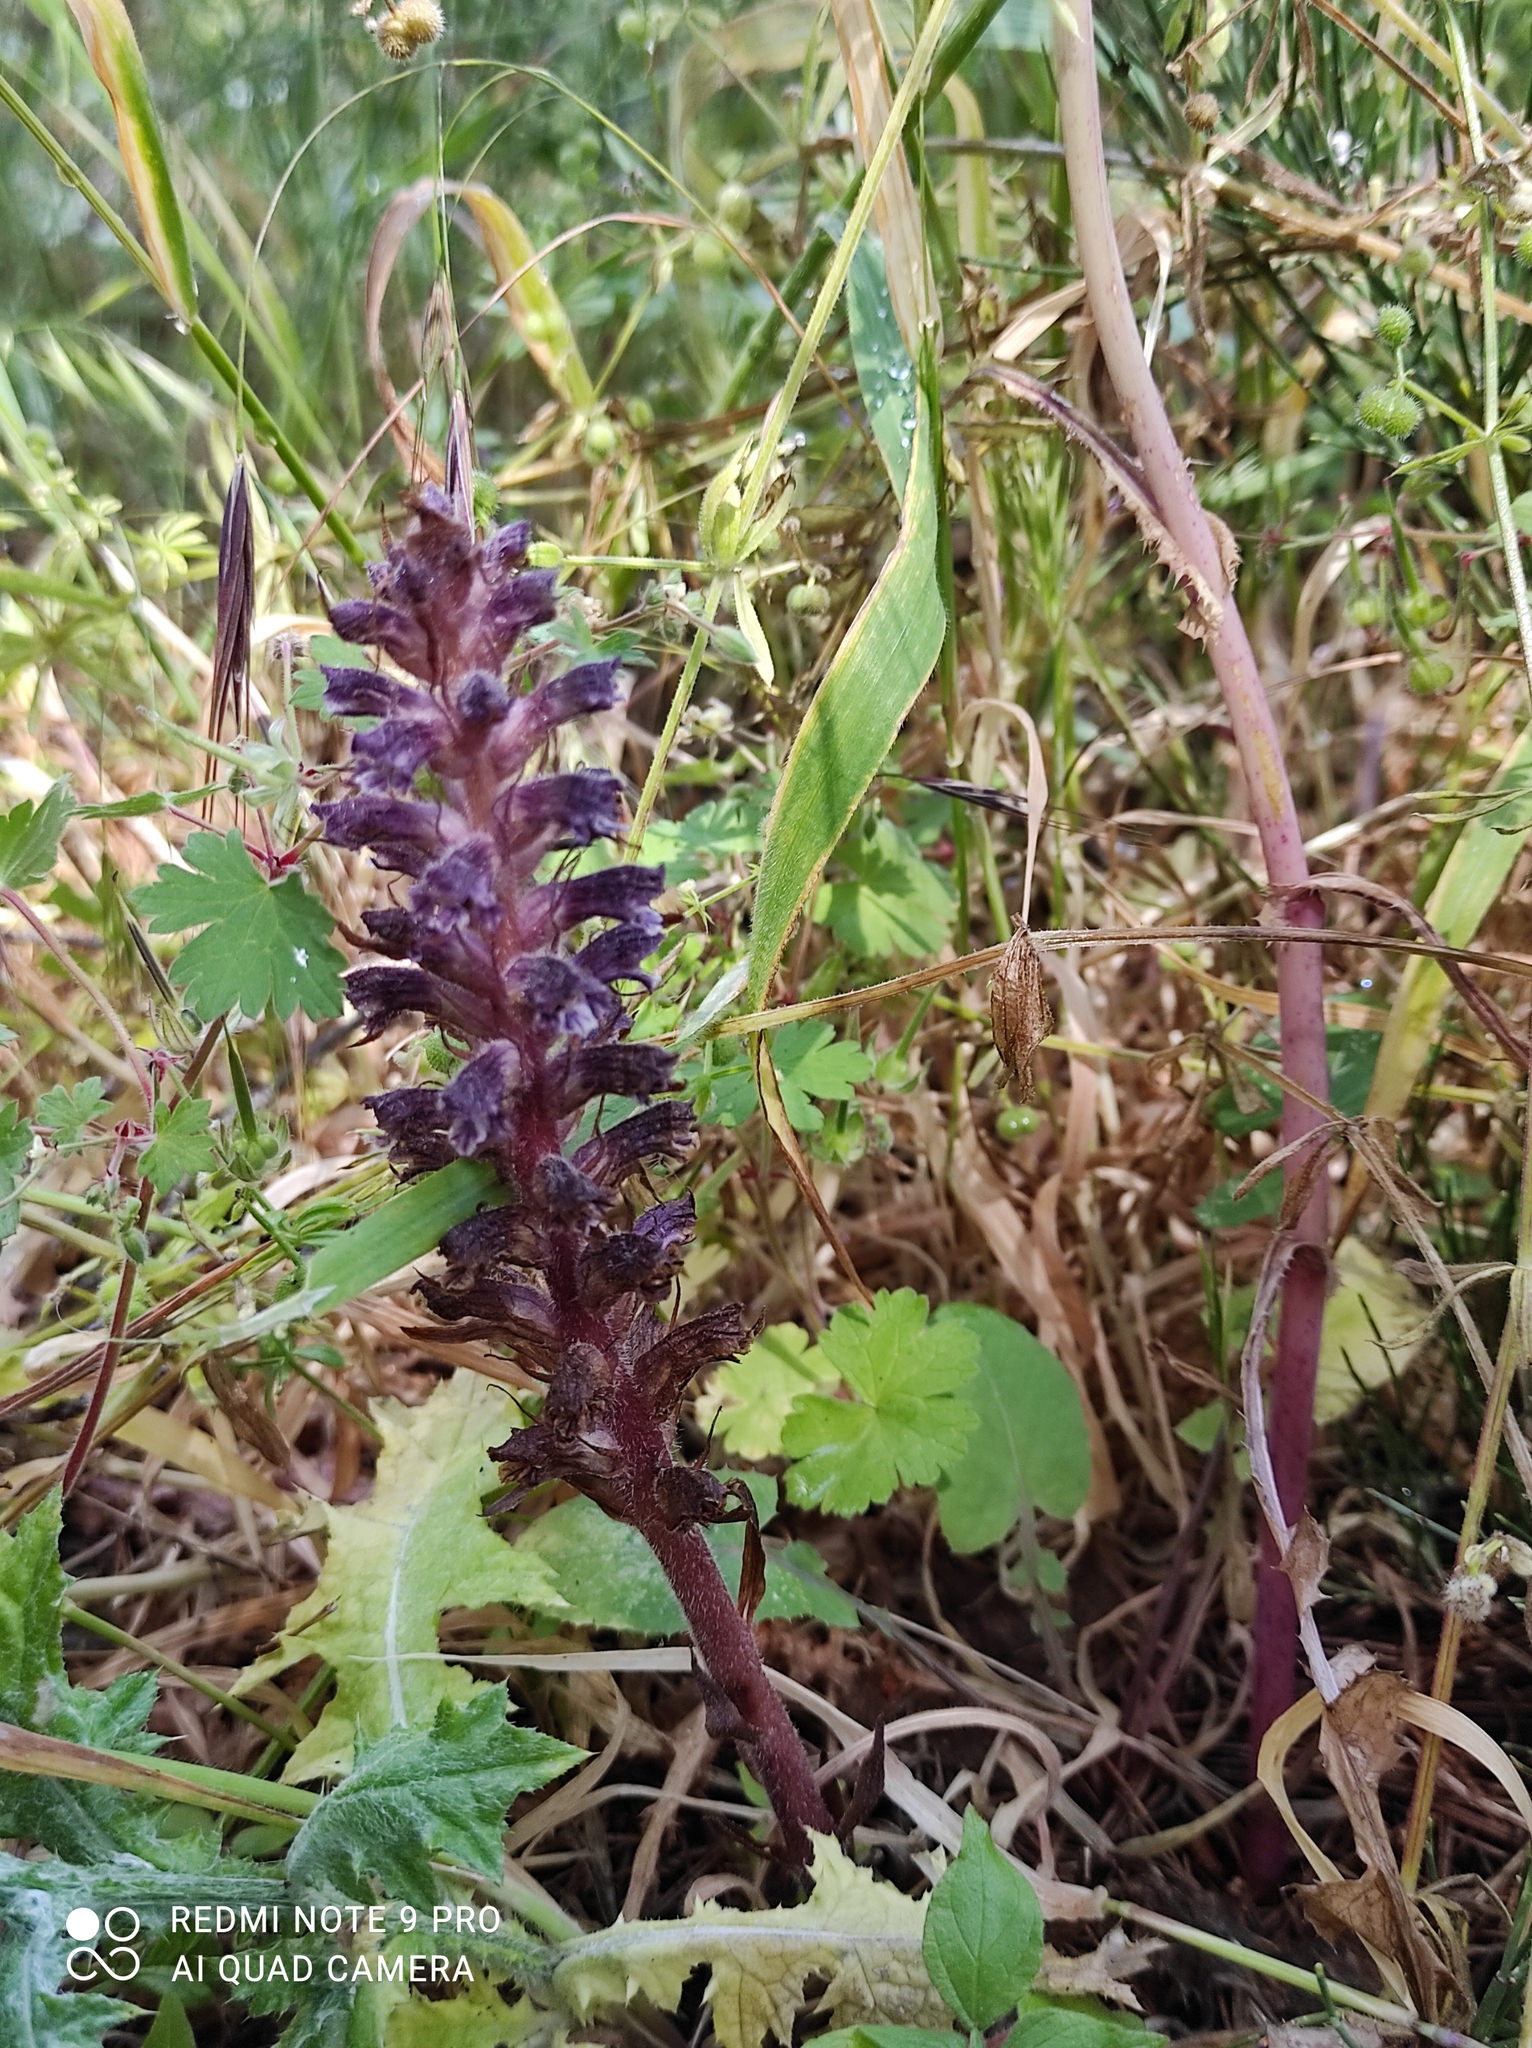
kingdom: Plantae
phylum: Tracheophyta
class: Magnoliopsida
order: Lamiales
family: Orobanchaceae
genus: Orobanche
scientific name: Orobanche pubescens
